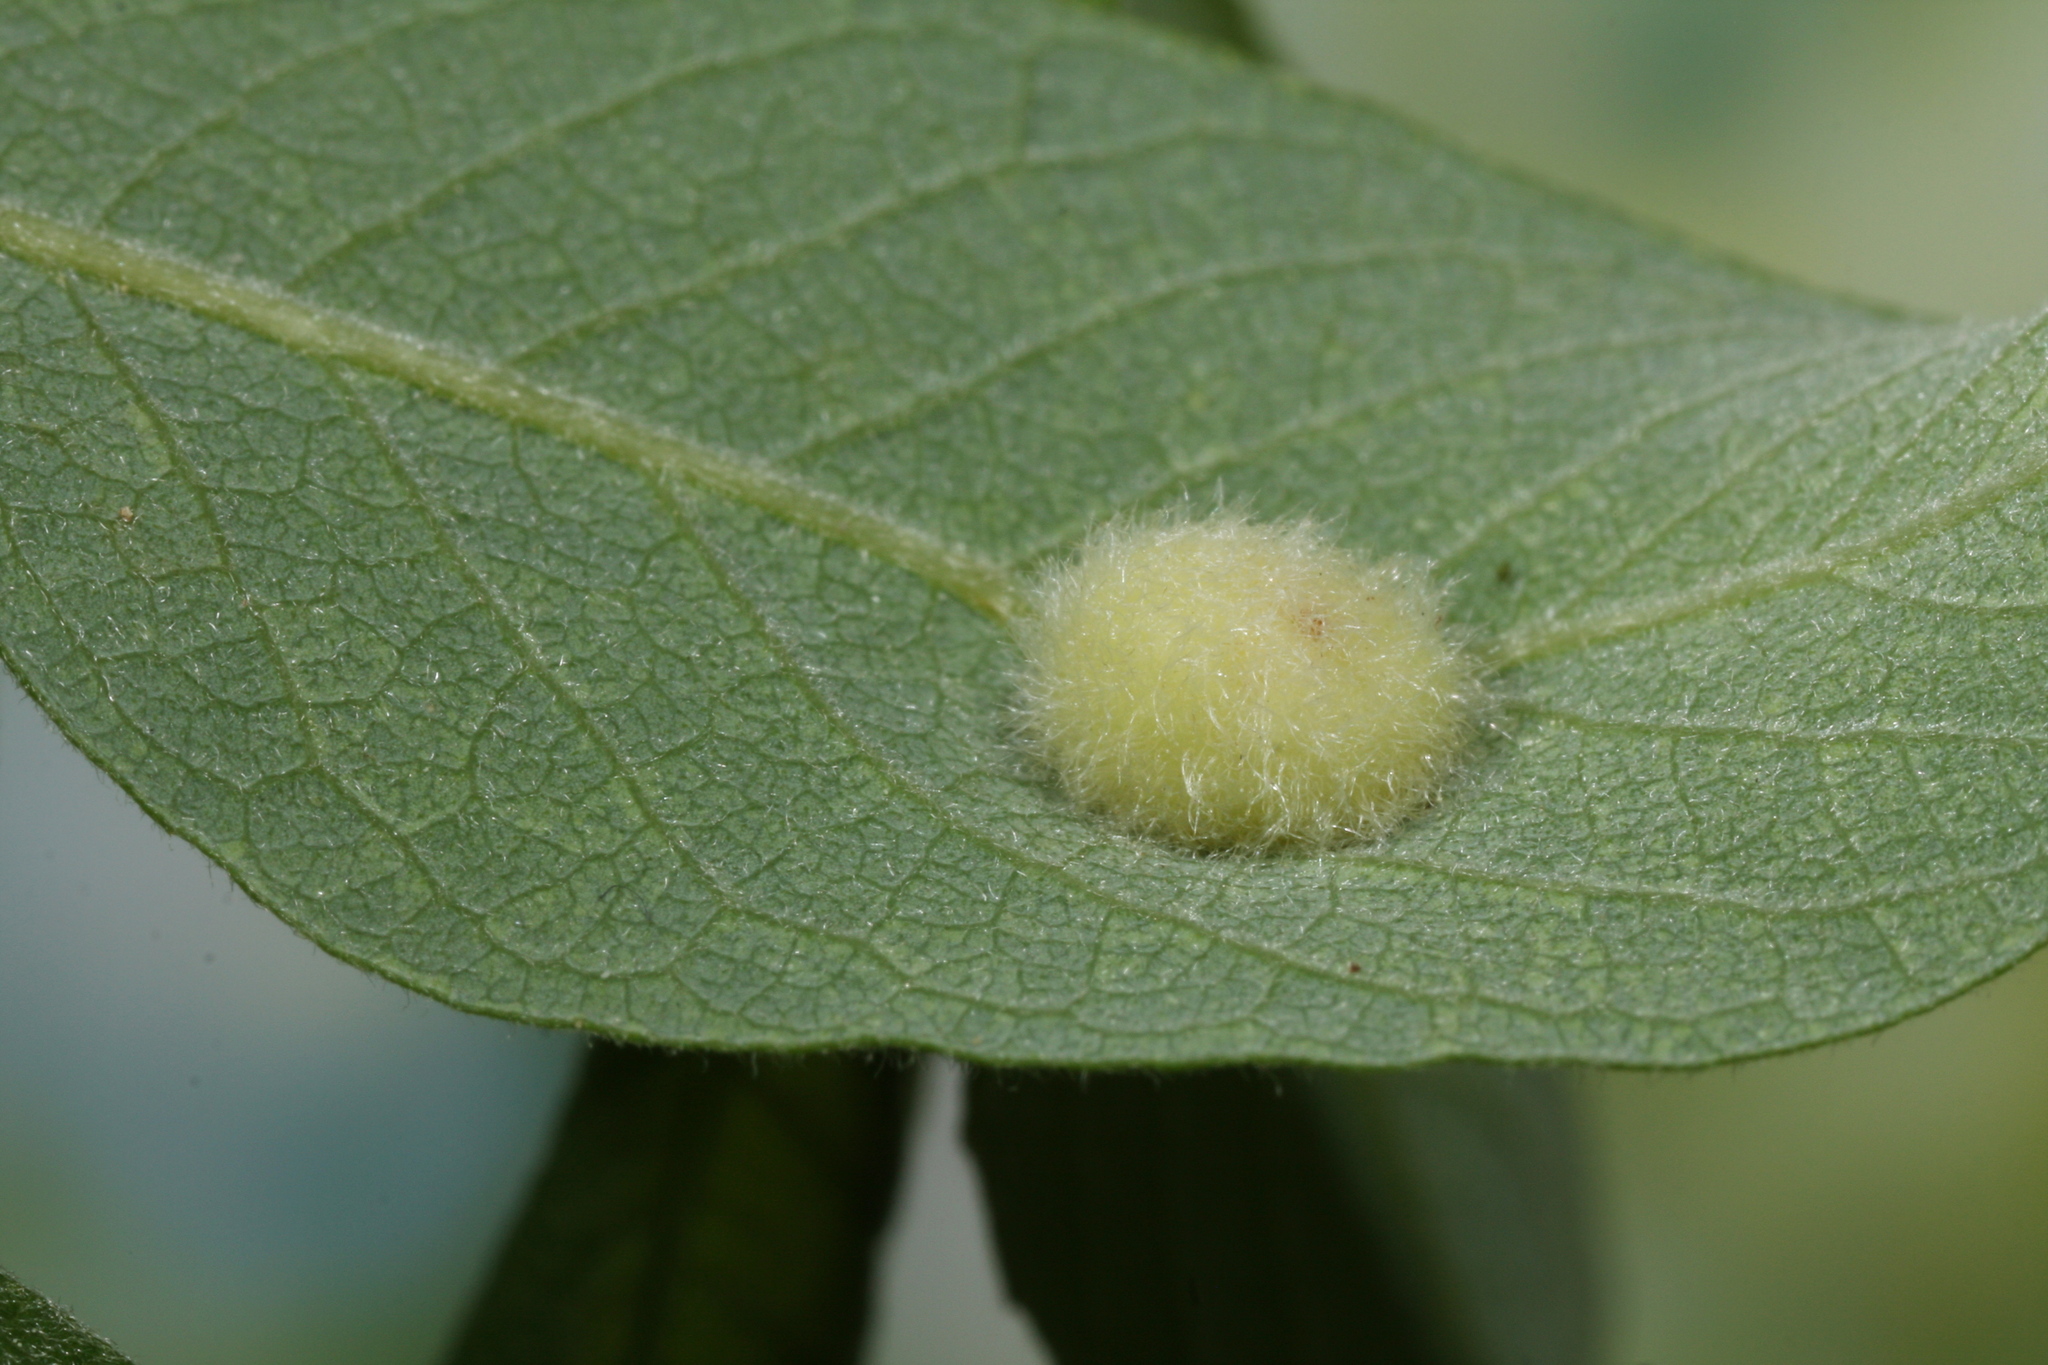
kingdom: Animalia
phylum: Arthropoda
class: Insecta
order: Hymenoptera
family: Tenthredinidae
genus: Pontania
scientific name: Pontania pedunculi
